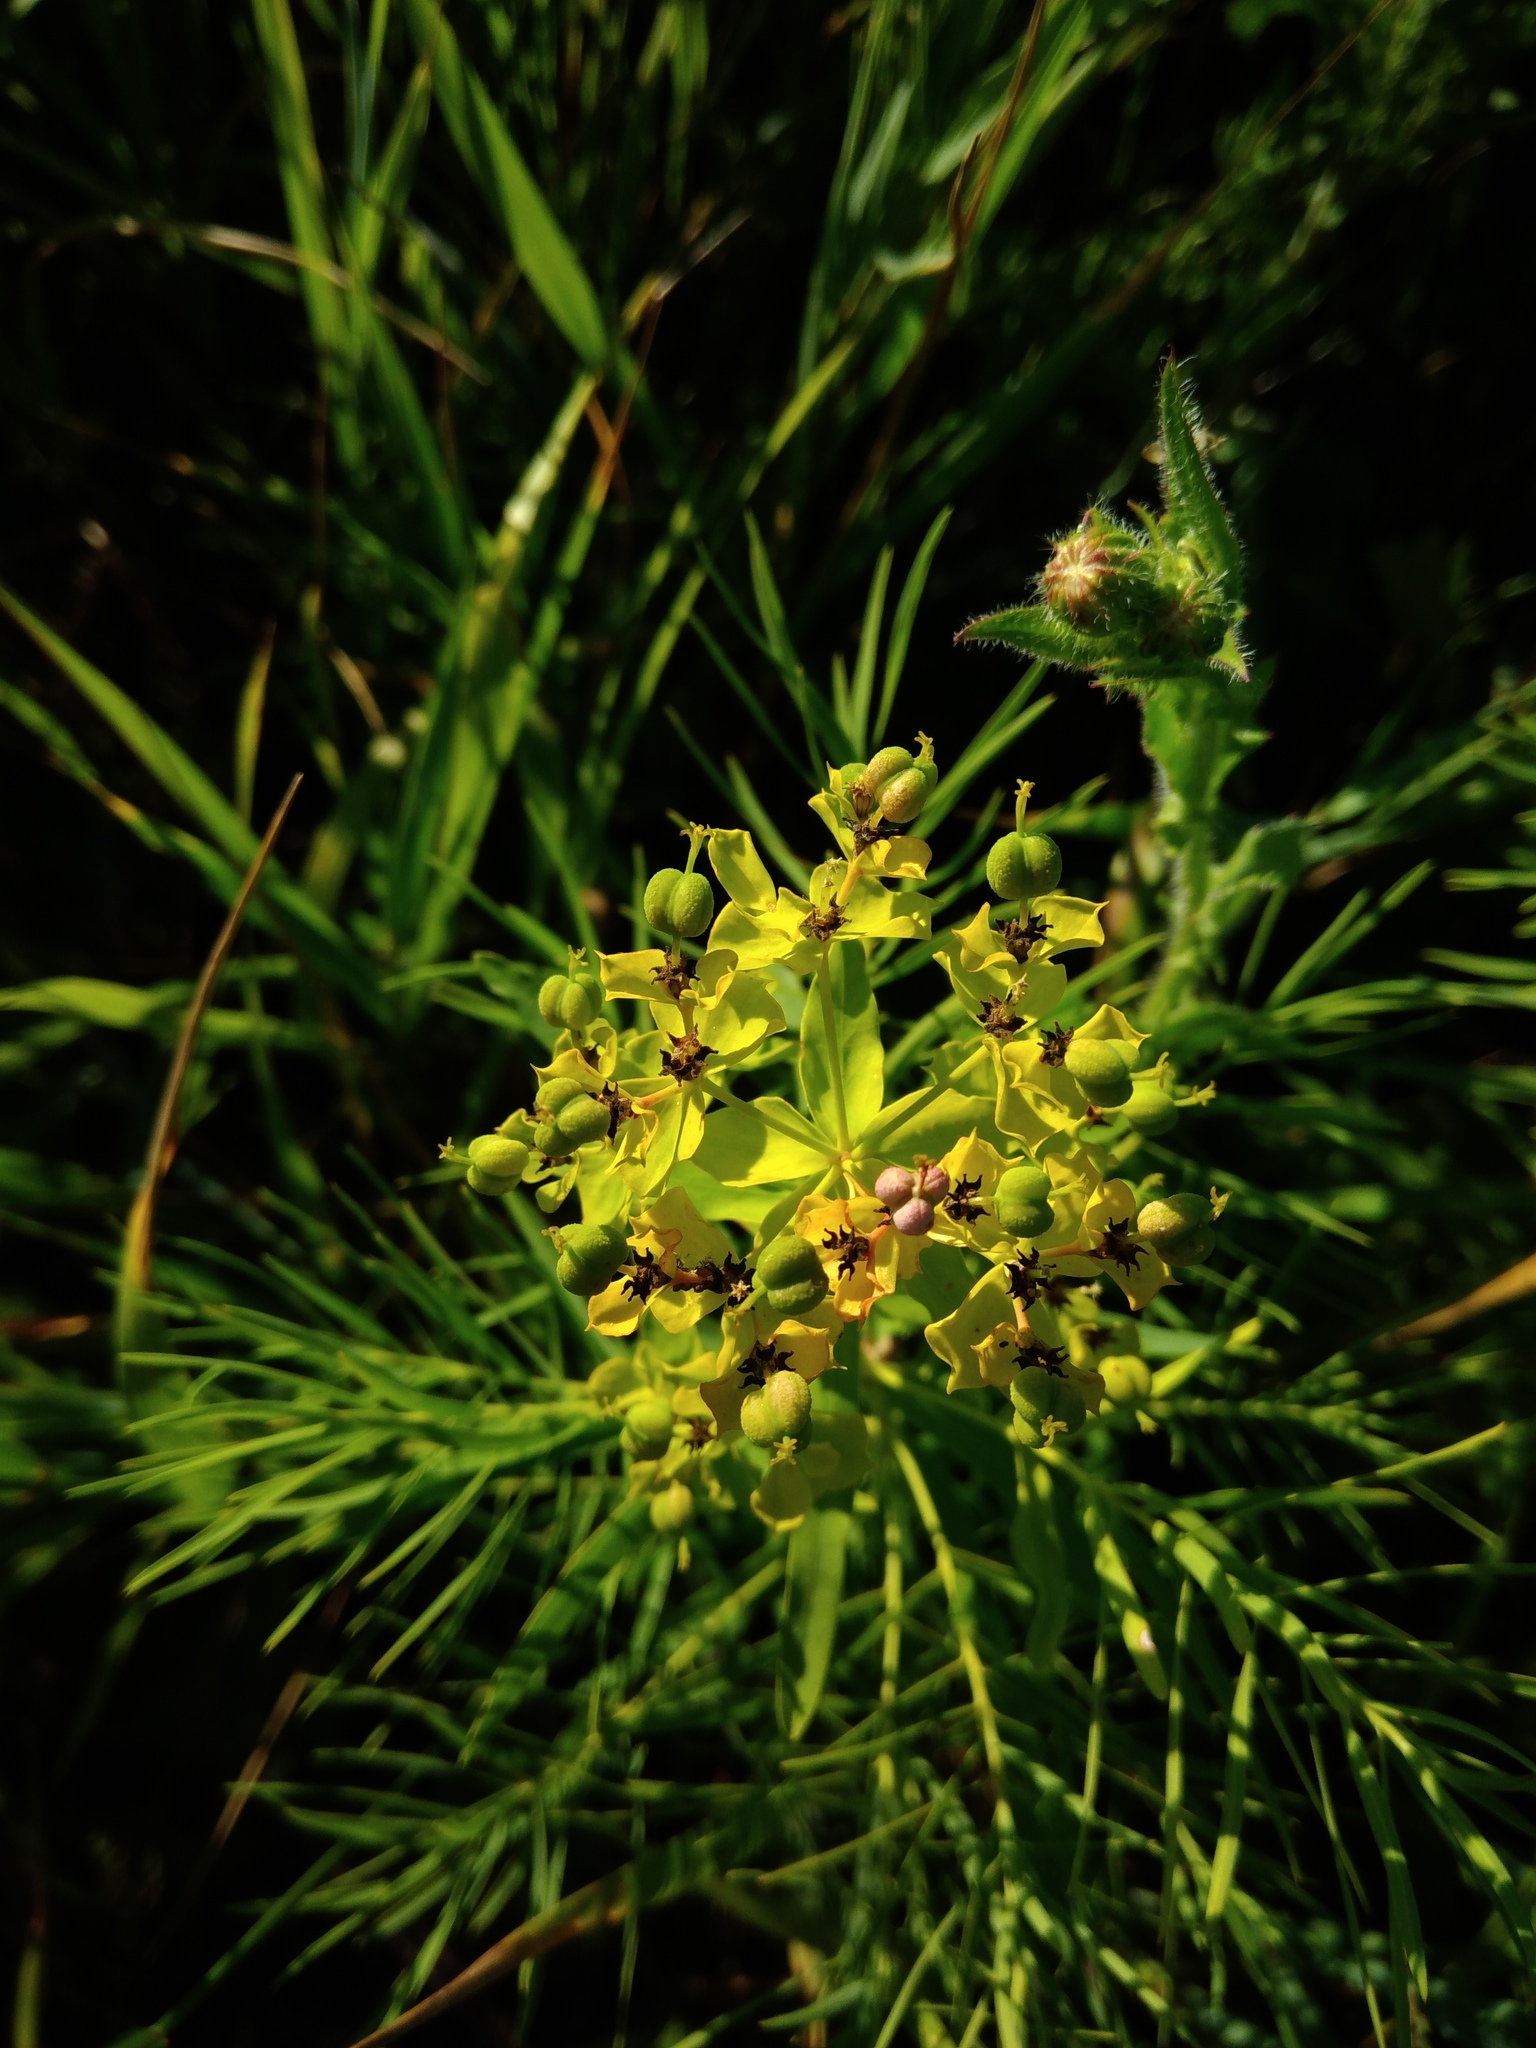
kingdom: Plantae
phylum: Tracheophyta
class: Magnoliopsida
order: Malpighiales
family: Euphorbiaceae
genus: Euphorbia
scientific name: Euphorbia virgata
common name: Leafy spurge
